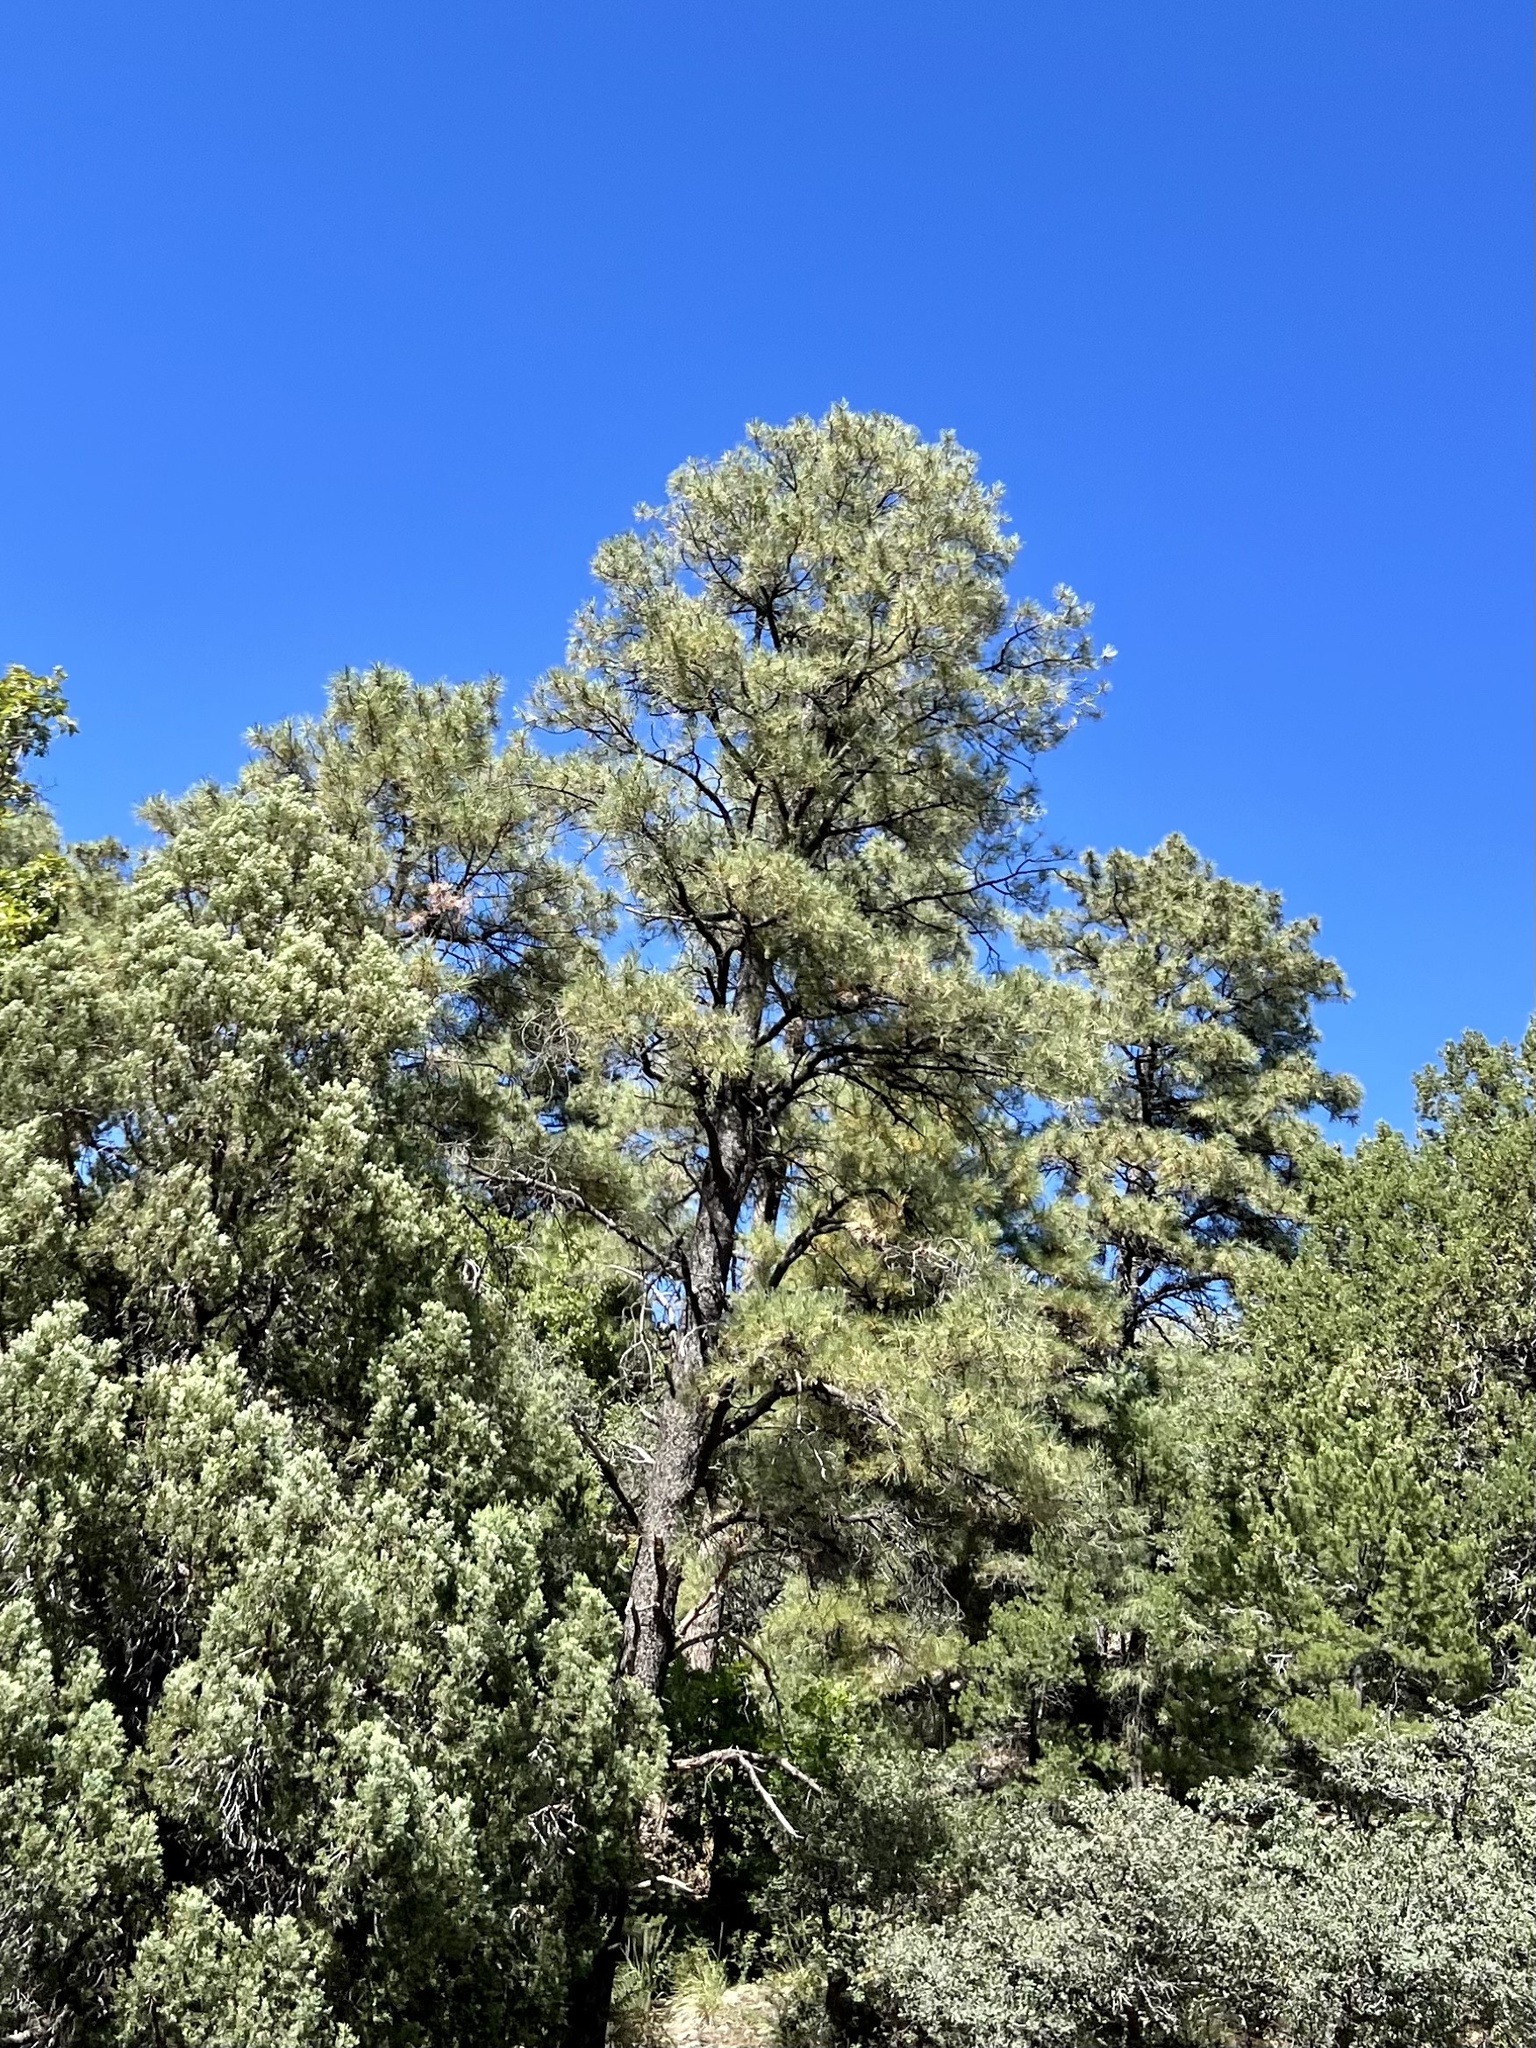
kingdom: Plantae
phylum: Tracheophyta
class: Pinopsida
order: Pinales
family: Pinaceae
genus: Pinus
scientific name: Pinus ponderosa
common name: Western yellow-pine
